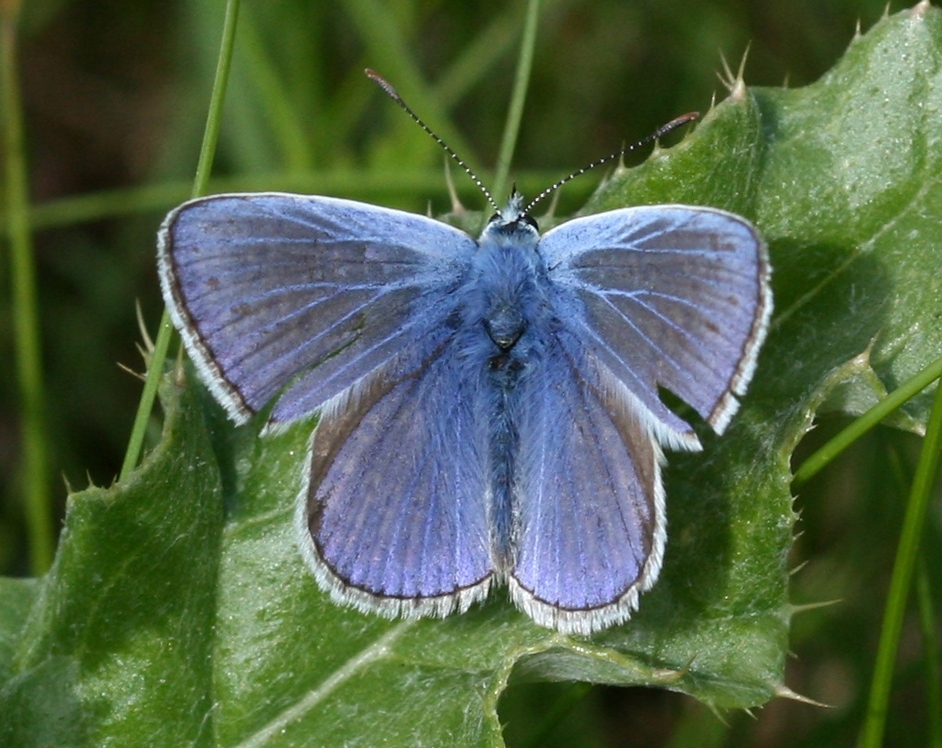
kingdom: Animalia
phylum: Arthropoda
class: Insecta
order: Lepidoptera
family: Lycaenidae
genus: Polyommatus
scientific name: Polyommatus icarus
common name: Common blue
